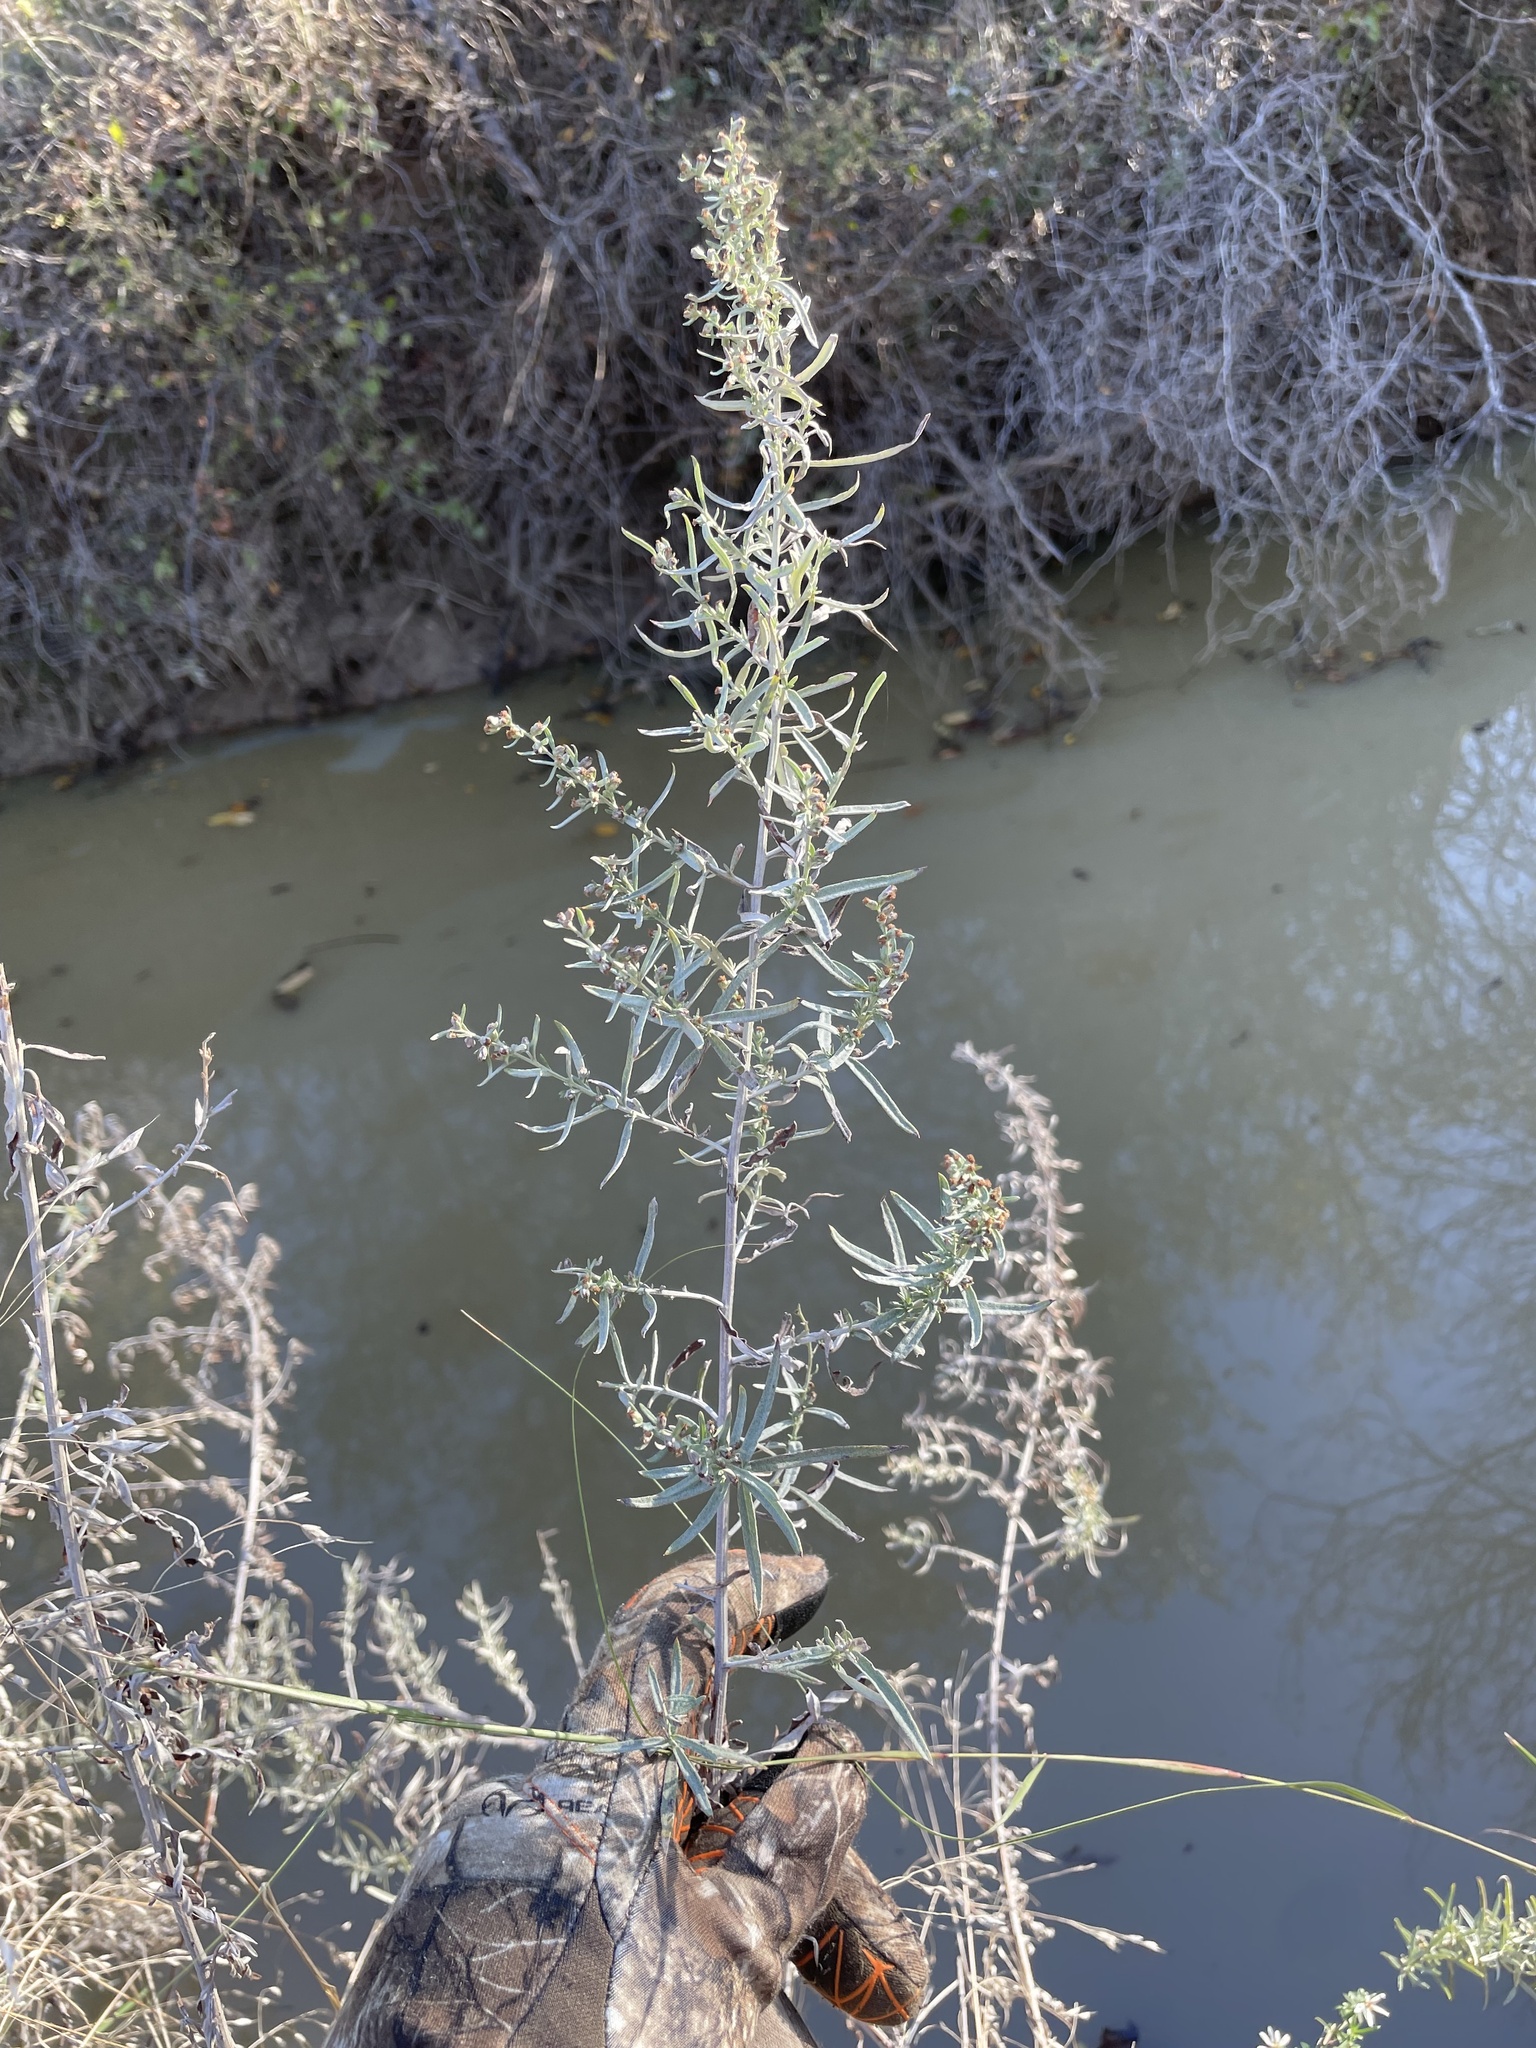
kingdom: Plantae
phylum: Tracheophyta
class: Magnoliopsida
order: Asterales
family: Asteraceae
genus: Artemisia
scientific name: Artemisia ludoviciana
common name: Western mugwort
